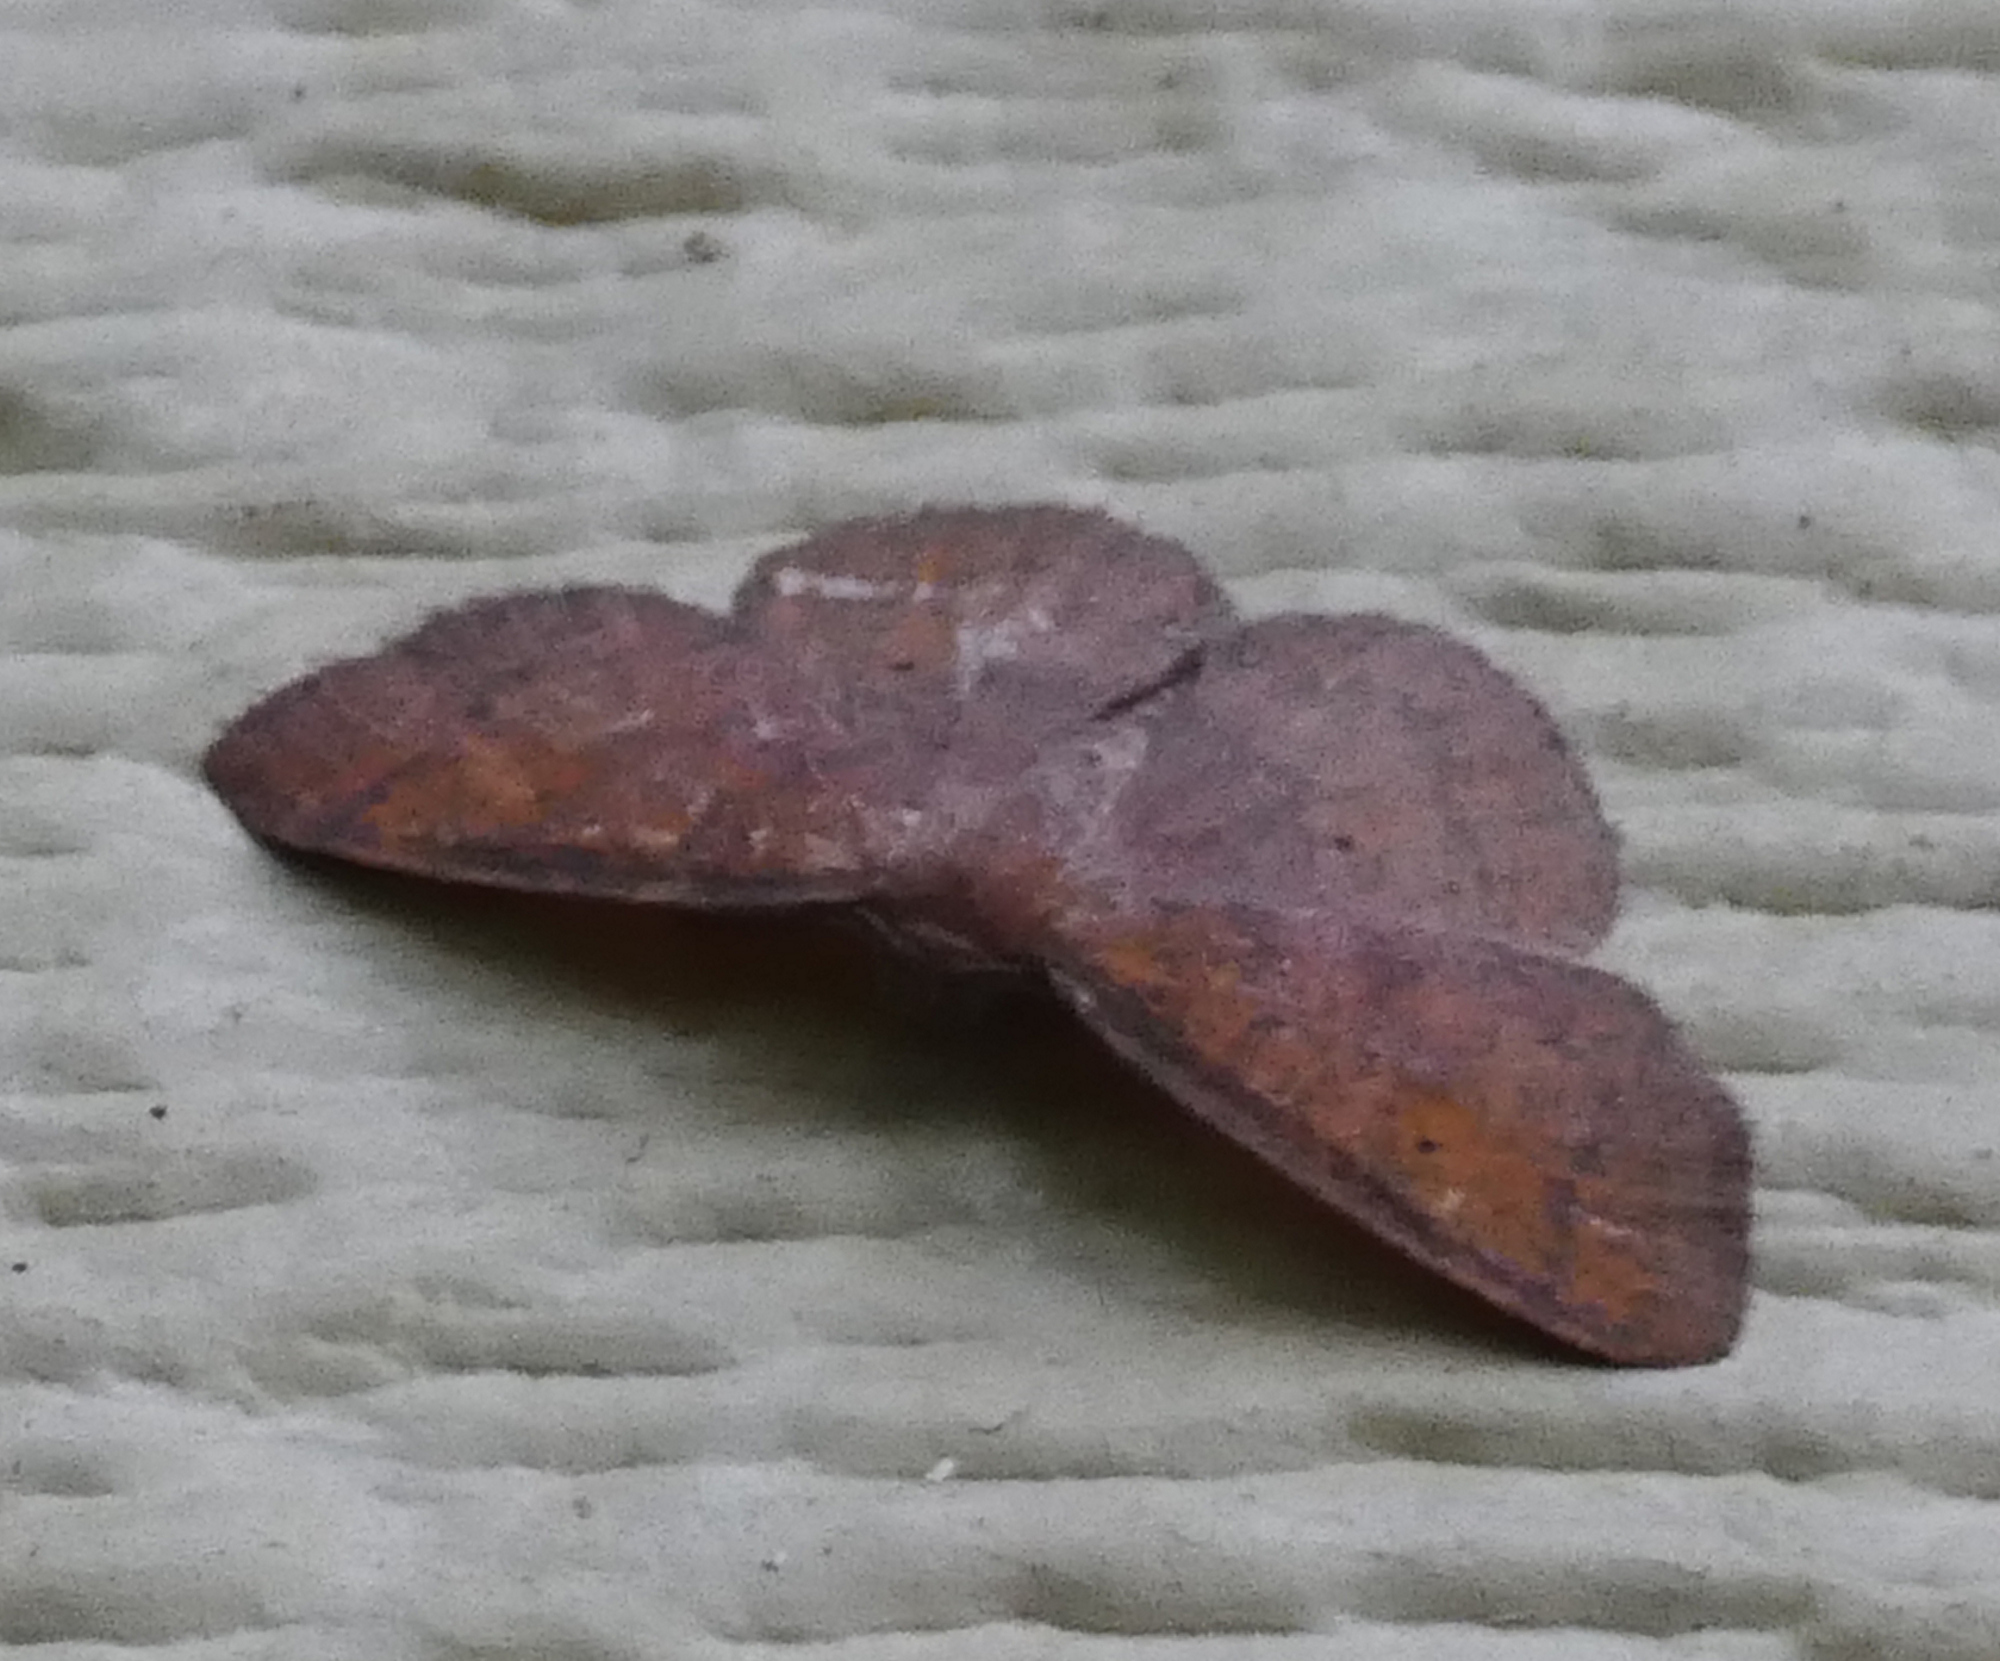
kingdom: Animalia
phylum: Arthropoda
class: Insecta
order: Lepidoptera
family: Geometridae
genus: Ilexia
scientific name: Ilexia intractata
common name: Black-dotted ruddy moth
